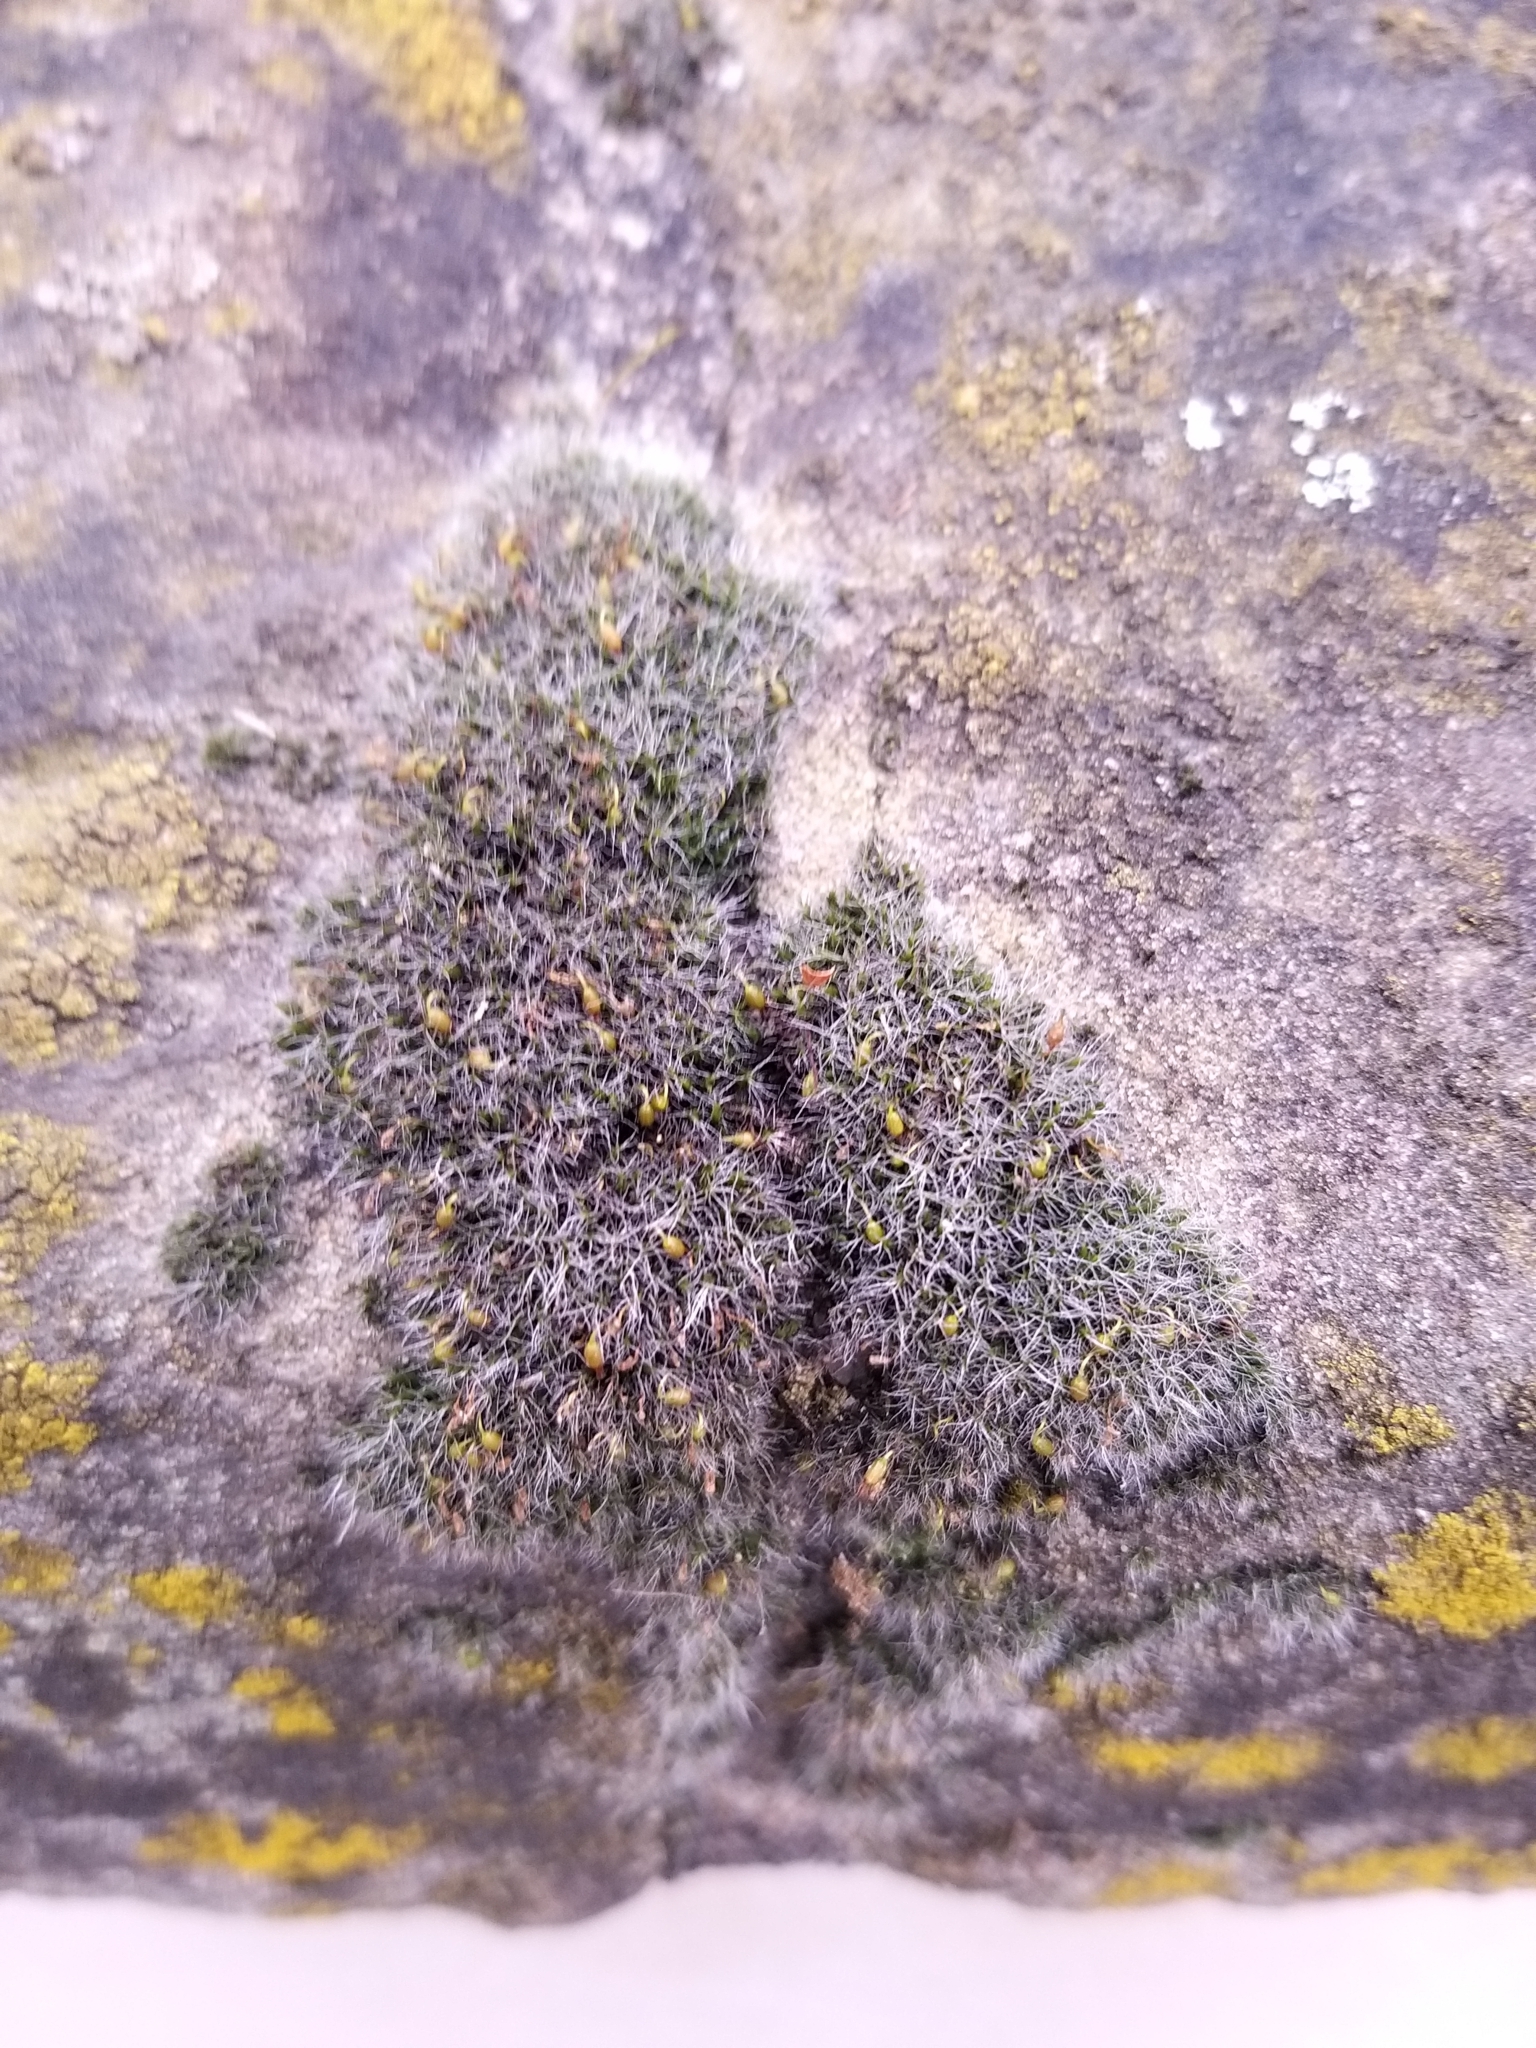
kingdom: Plantae
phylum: Bryophyta
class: Bryopsida
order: Grimmiales
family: Grimmiaceae
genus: Grimmia
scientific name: Grimmia pulvinata
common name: Grey-cushioned grimmia
